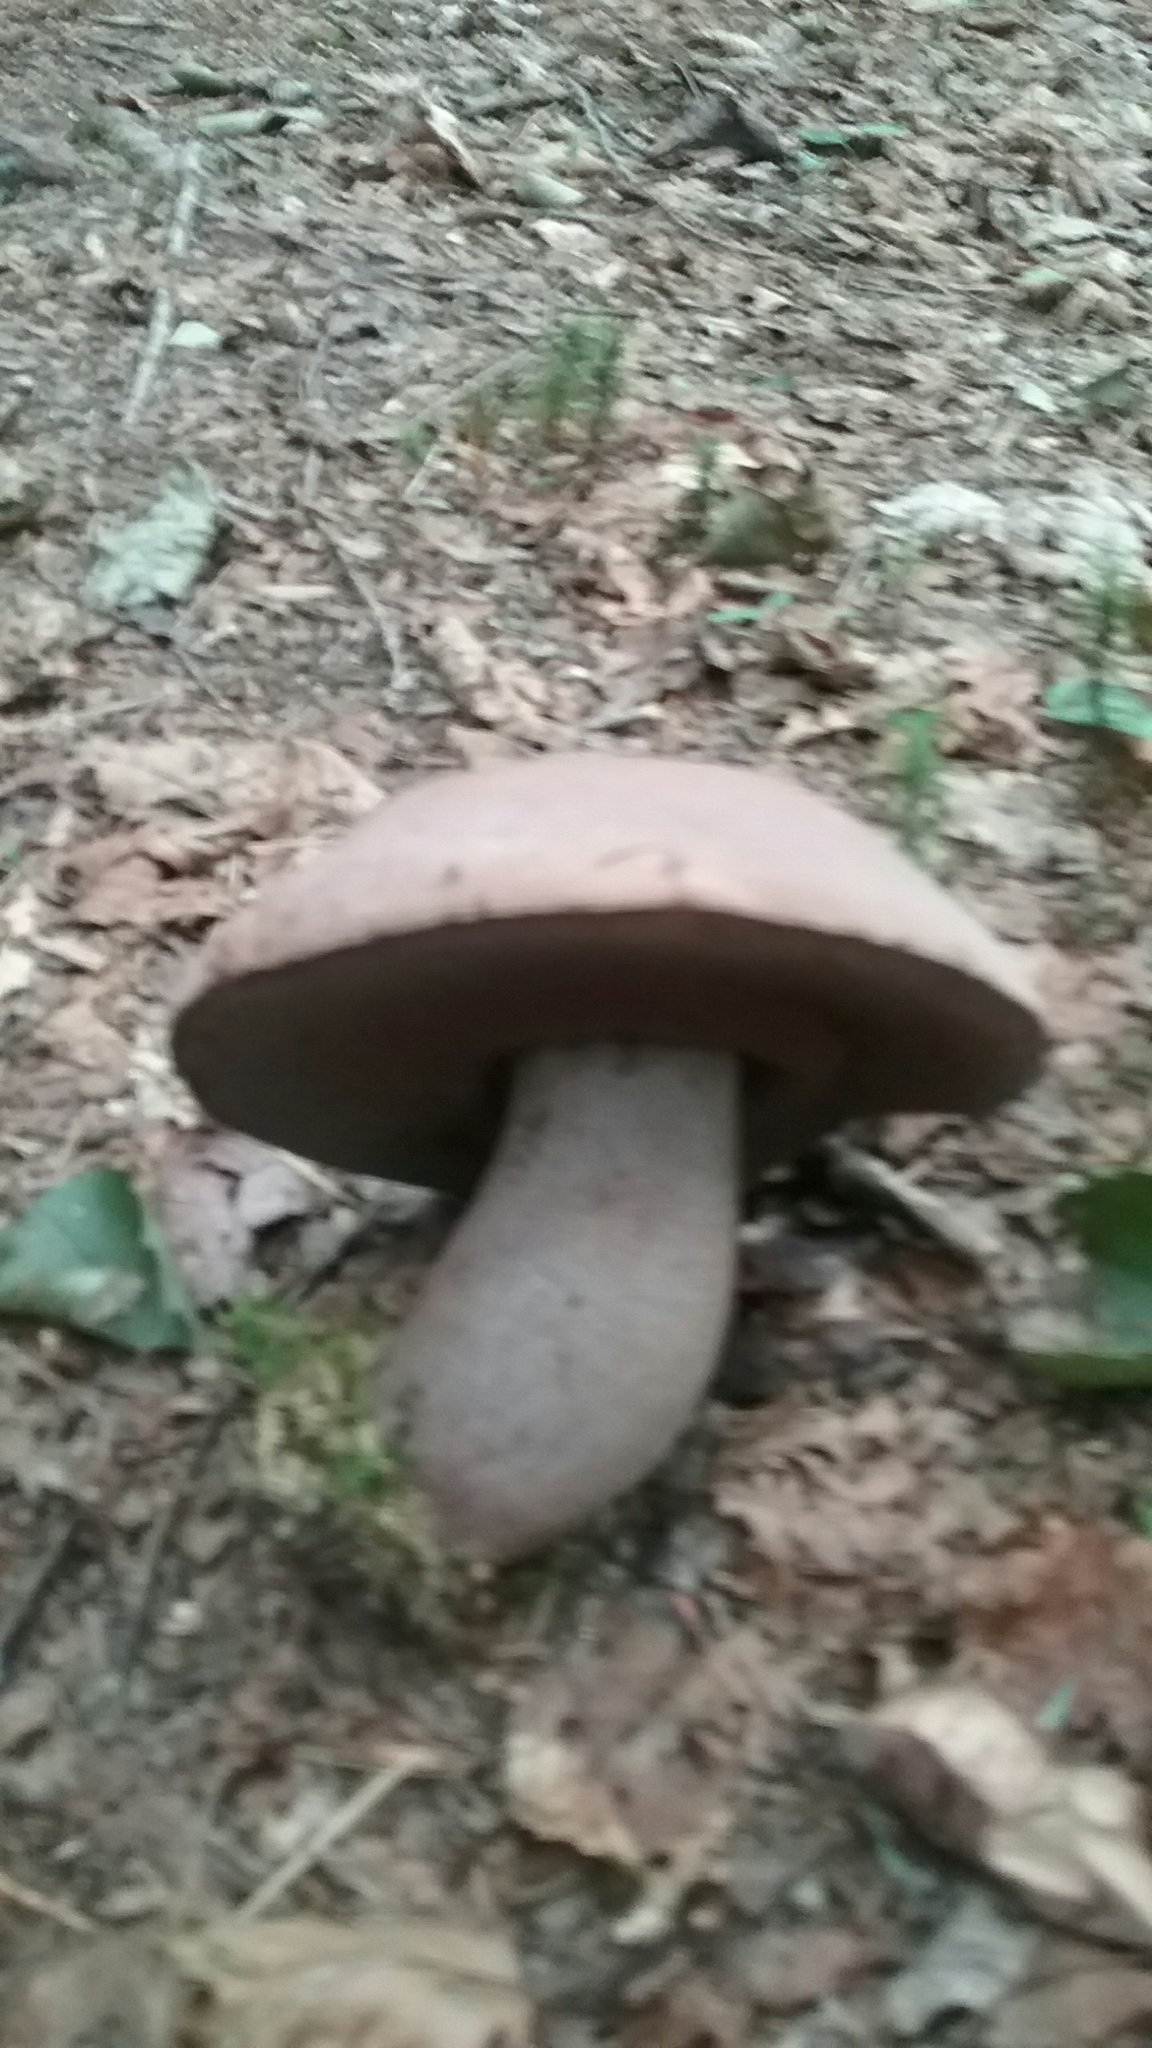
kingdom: Fungi
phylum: Basidiomycota
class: Agaricomycetes
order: Boletales
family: Boletaceae
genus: Sutorius
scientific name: Sutorius eximius
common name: Lilac-brown bolete
